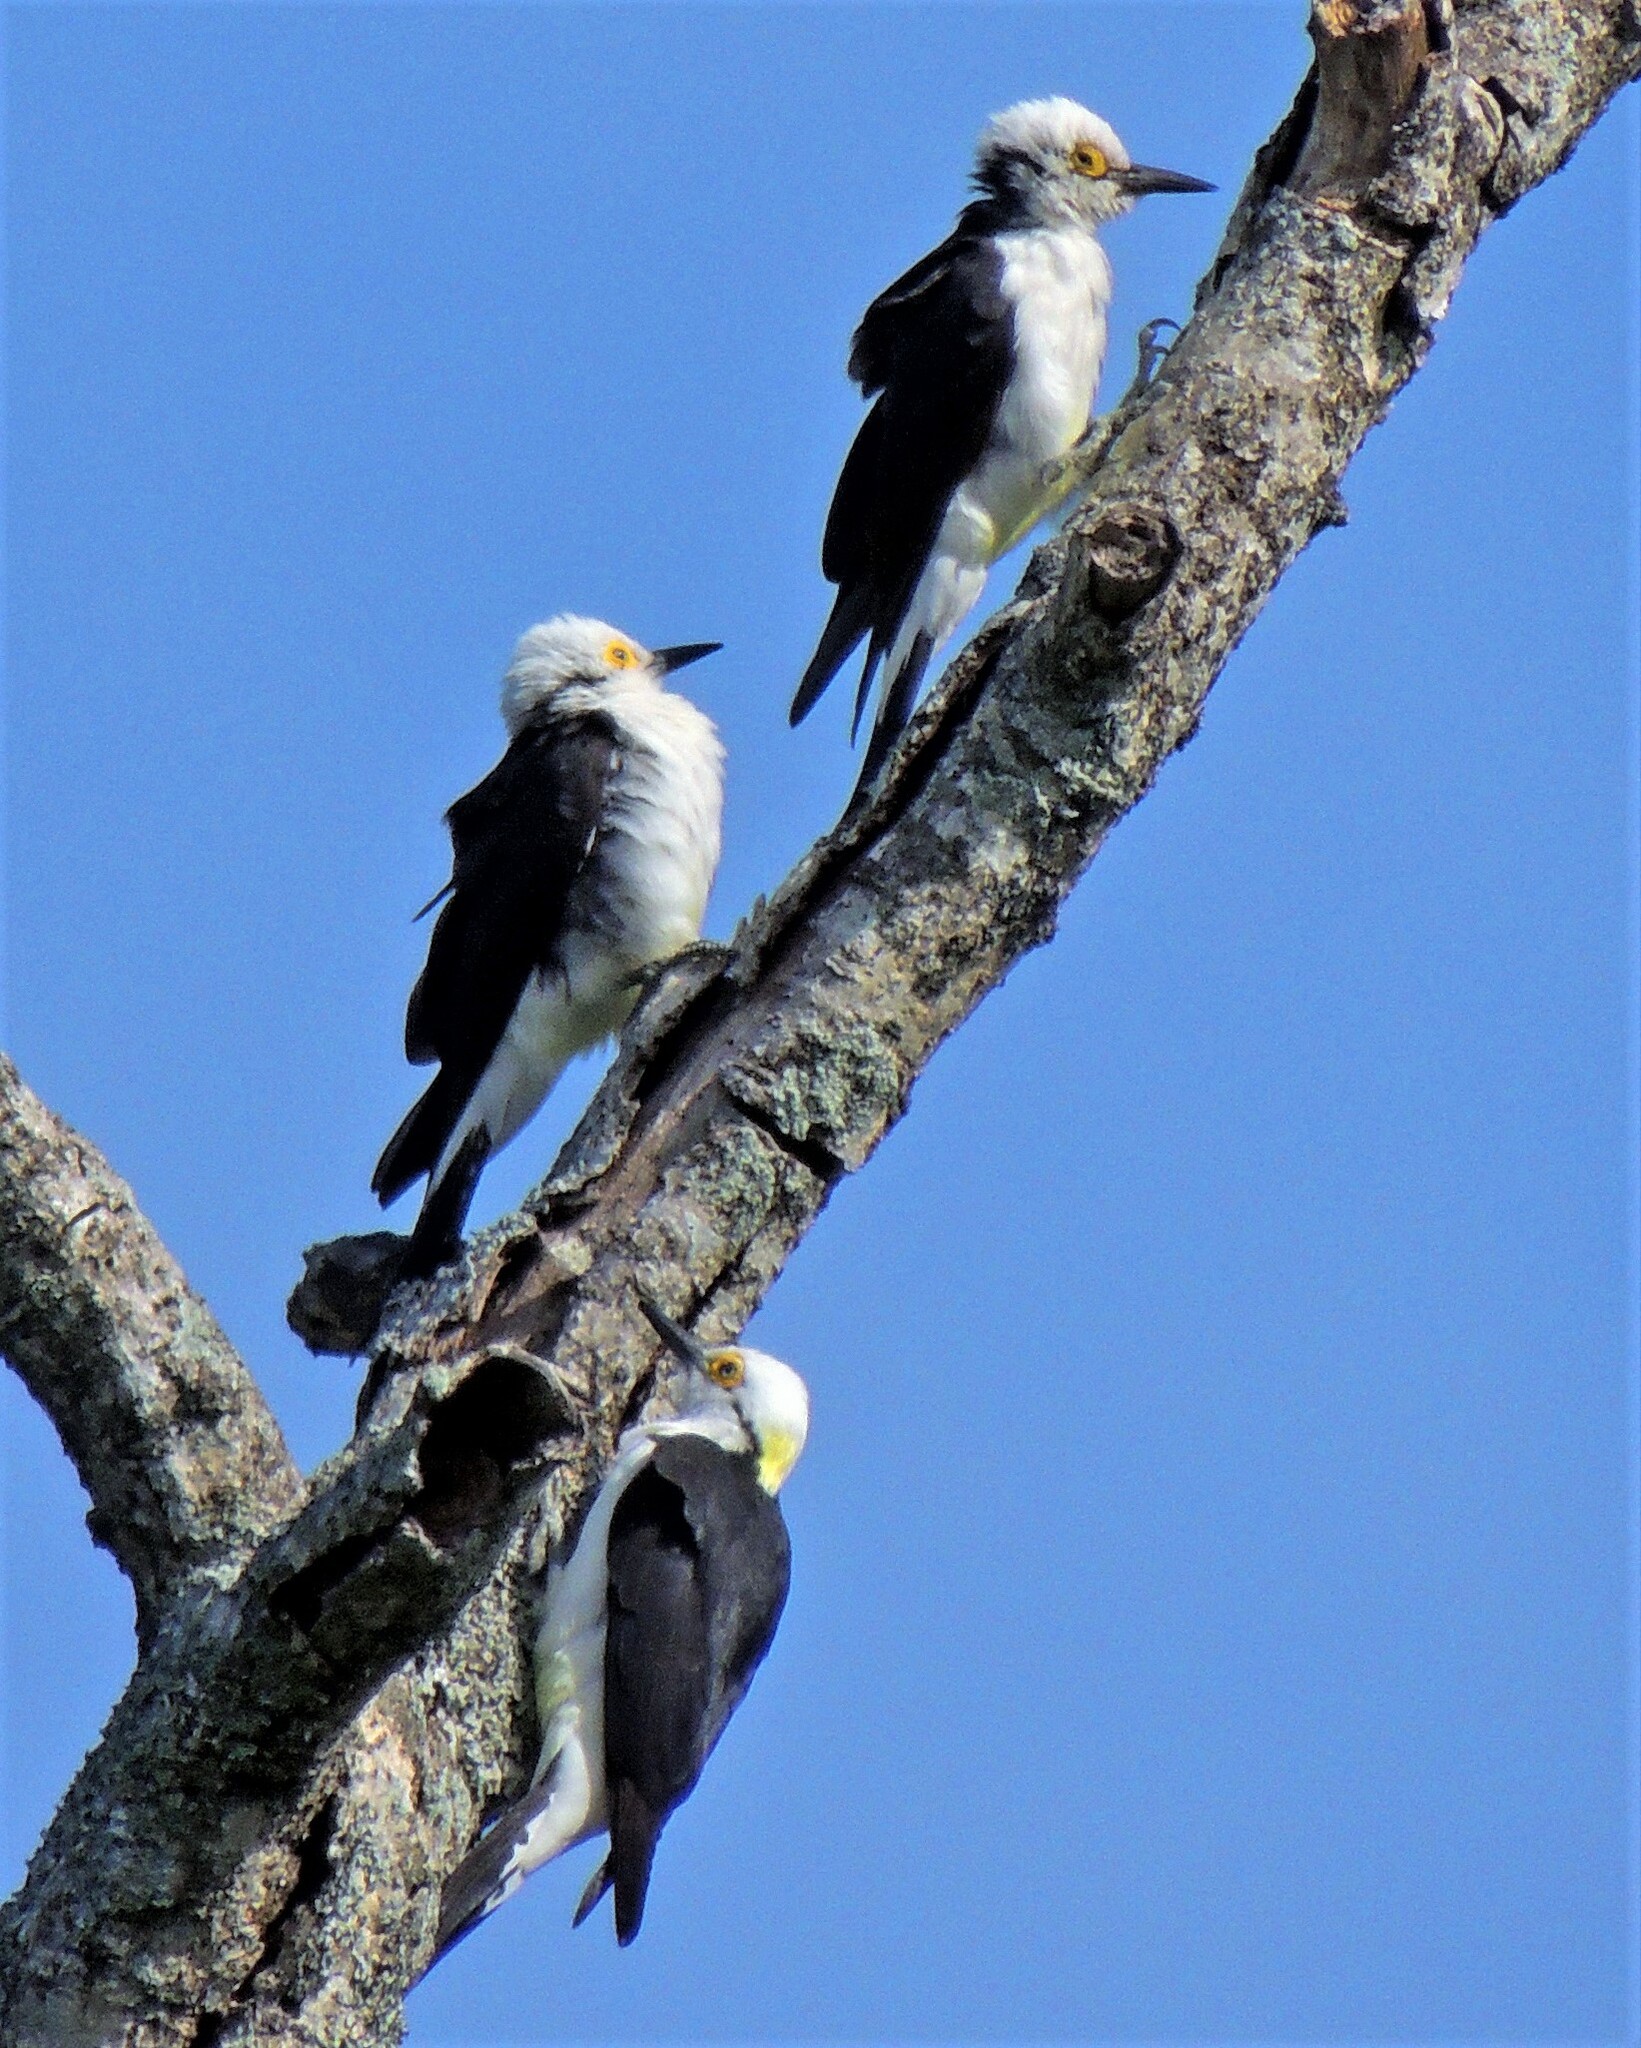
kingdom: Animalia
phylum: Chordata
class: Aves
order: Piciformes
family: Picidae
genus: Melanerpes
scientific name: Melanerpes candidus
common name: White woodpecker
